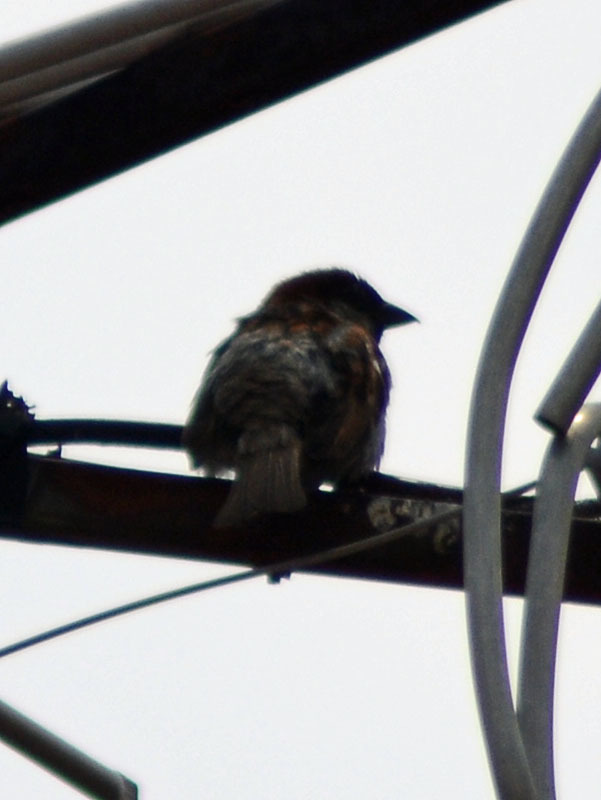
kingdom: Animalia
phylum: Chordata
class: Aves
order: Passeriformes
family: Passeridae
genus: Passer
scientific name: Passer domesticus
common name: House sparrow
